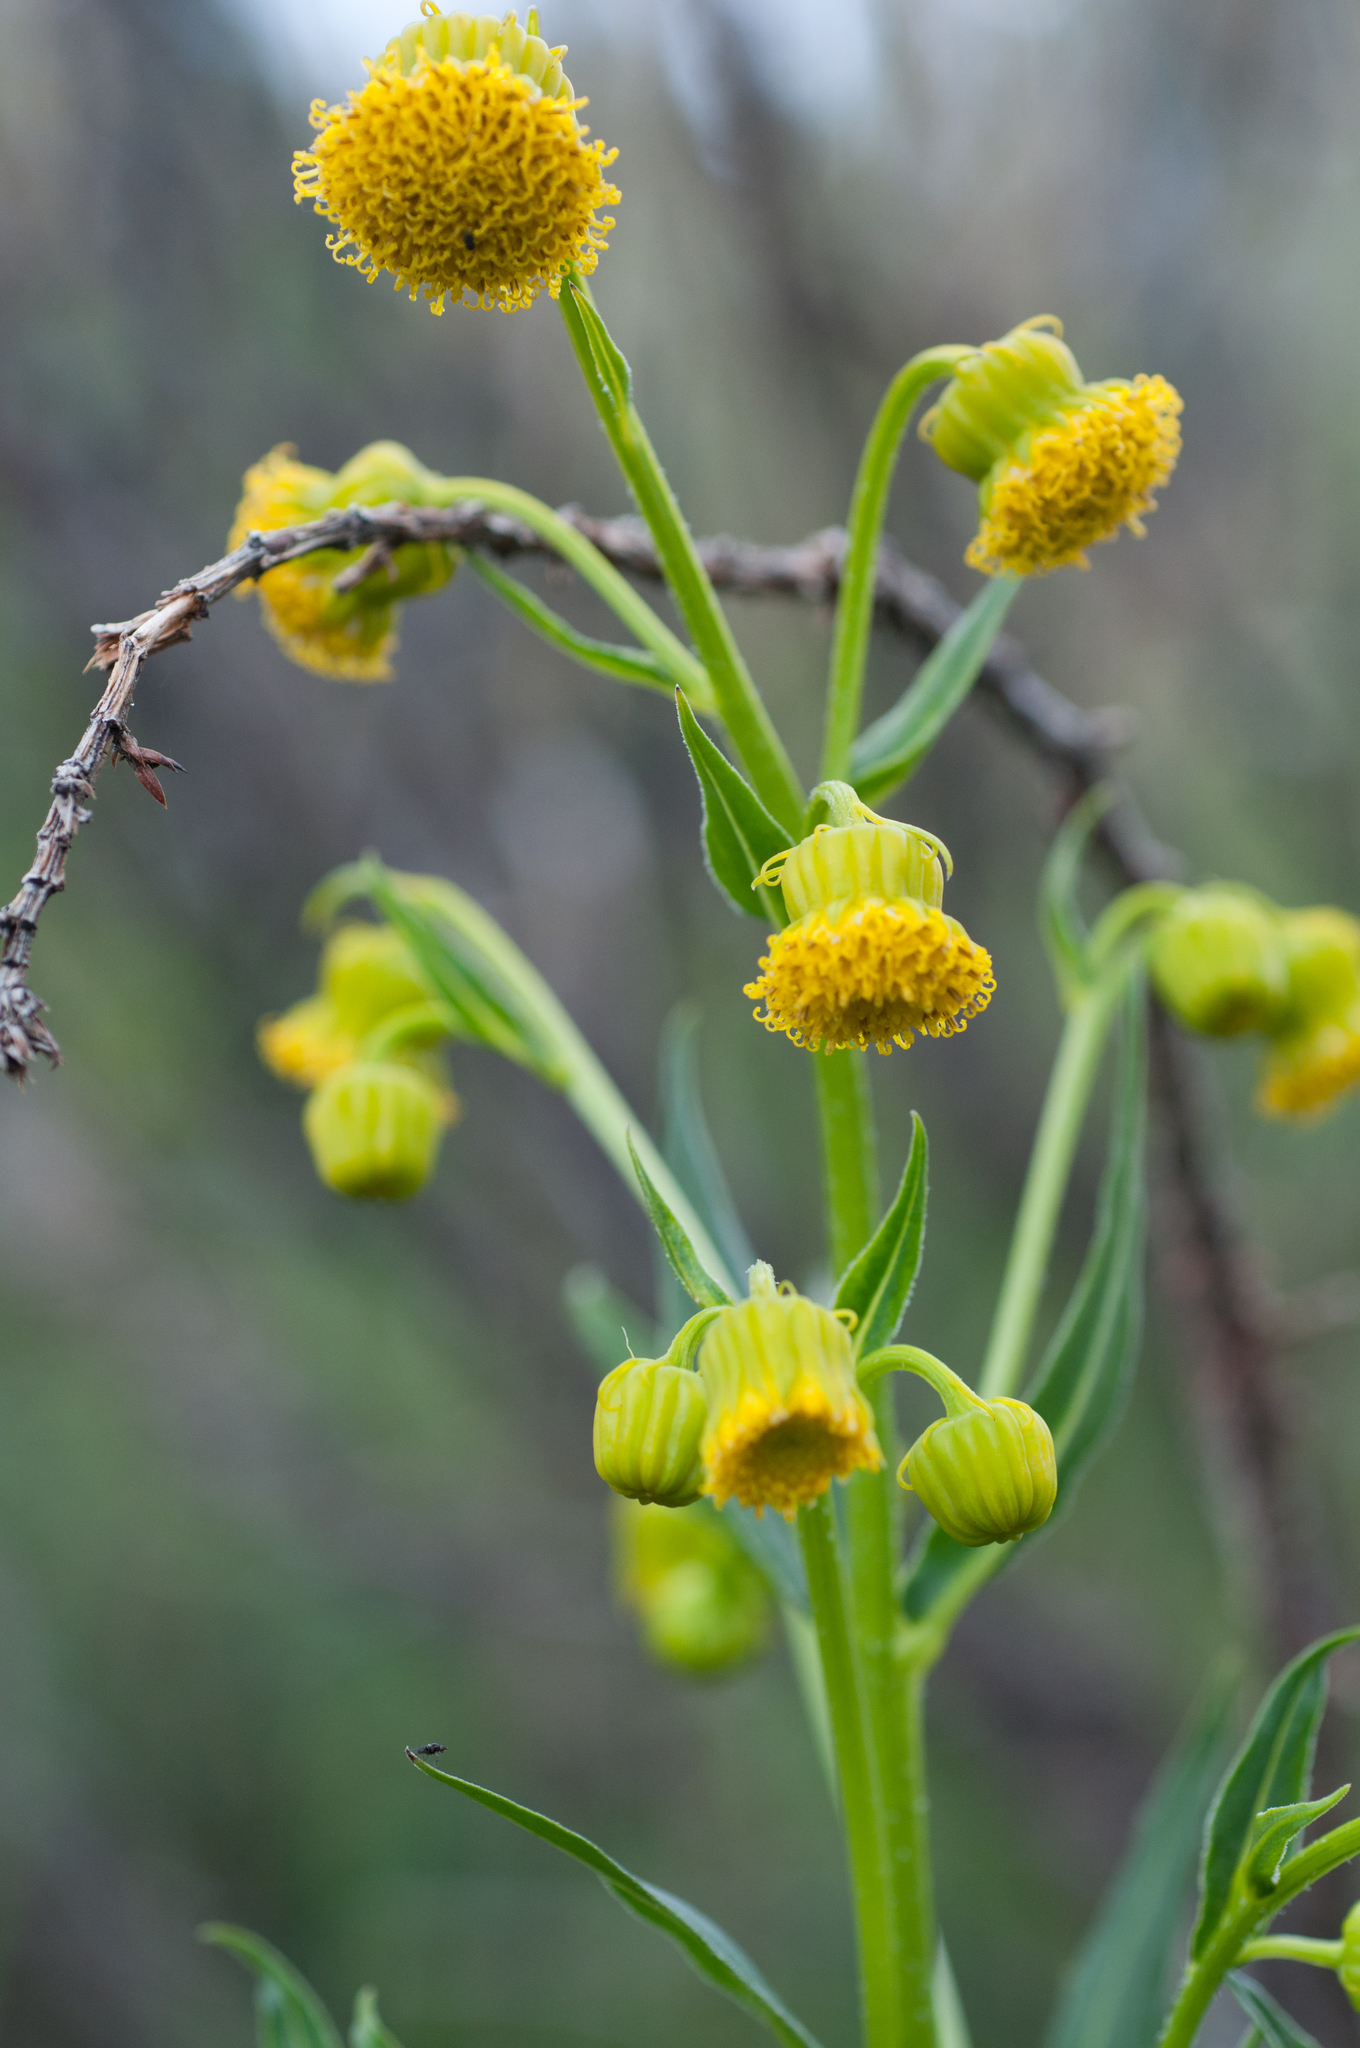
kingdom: Plantae
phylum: Tracheophyta
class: Magnoliopsida
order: Asterales
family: Asteraceae
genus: Senecio
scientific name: Senecio bigelovii
